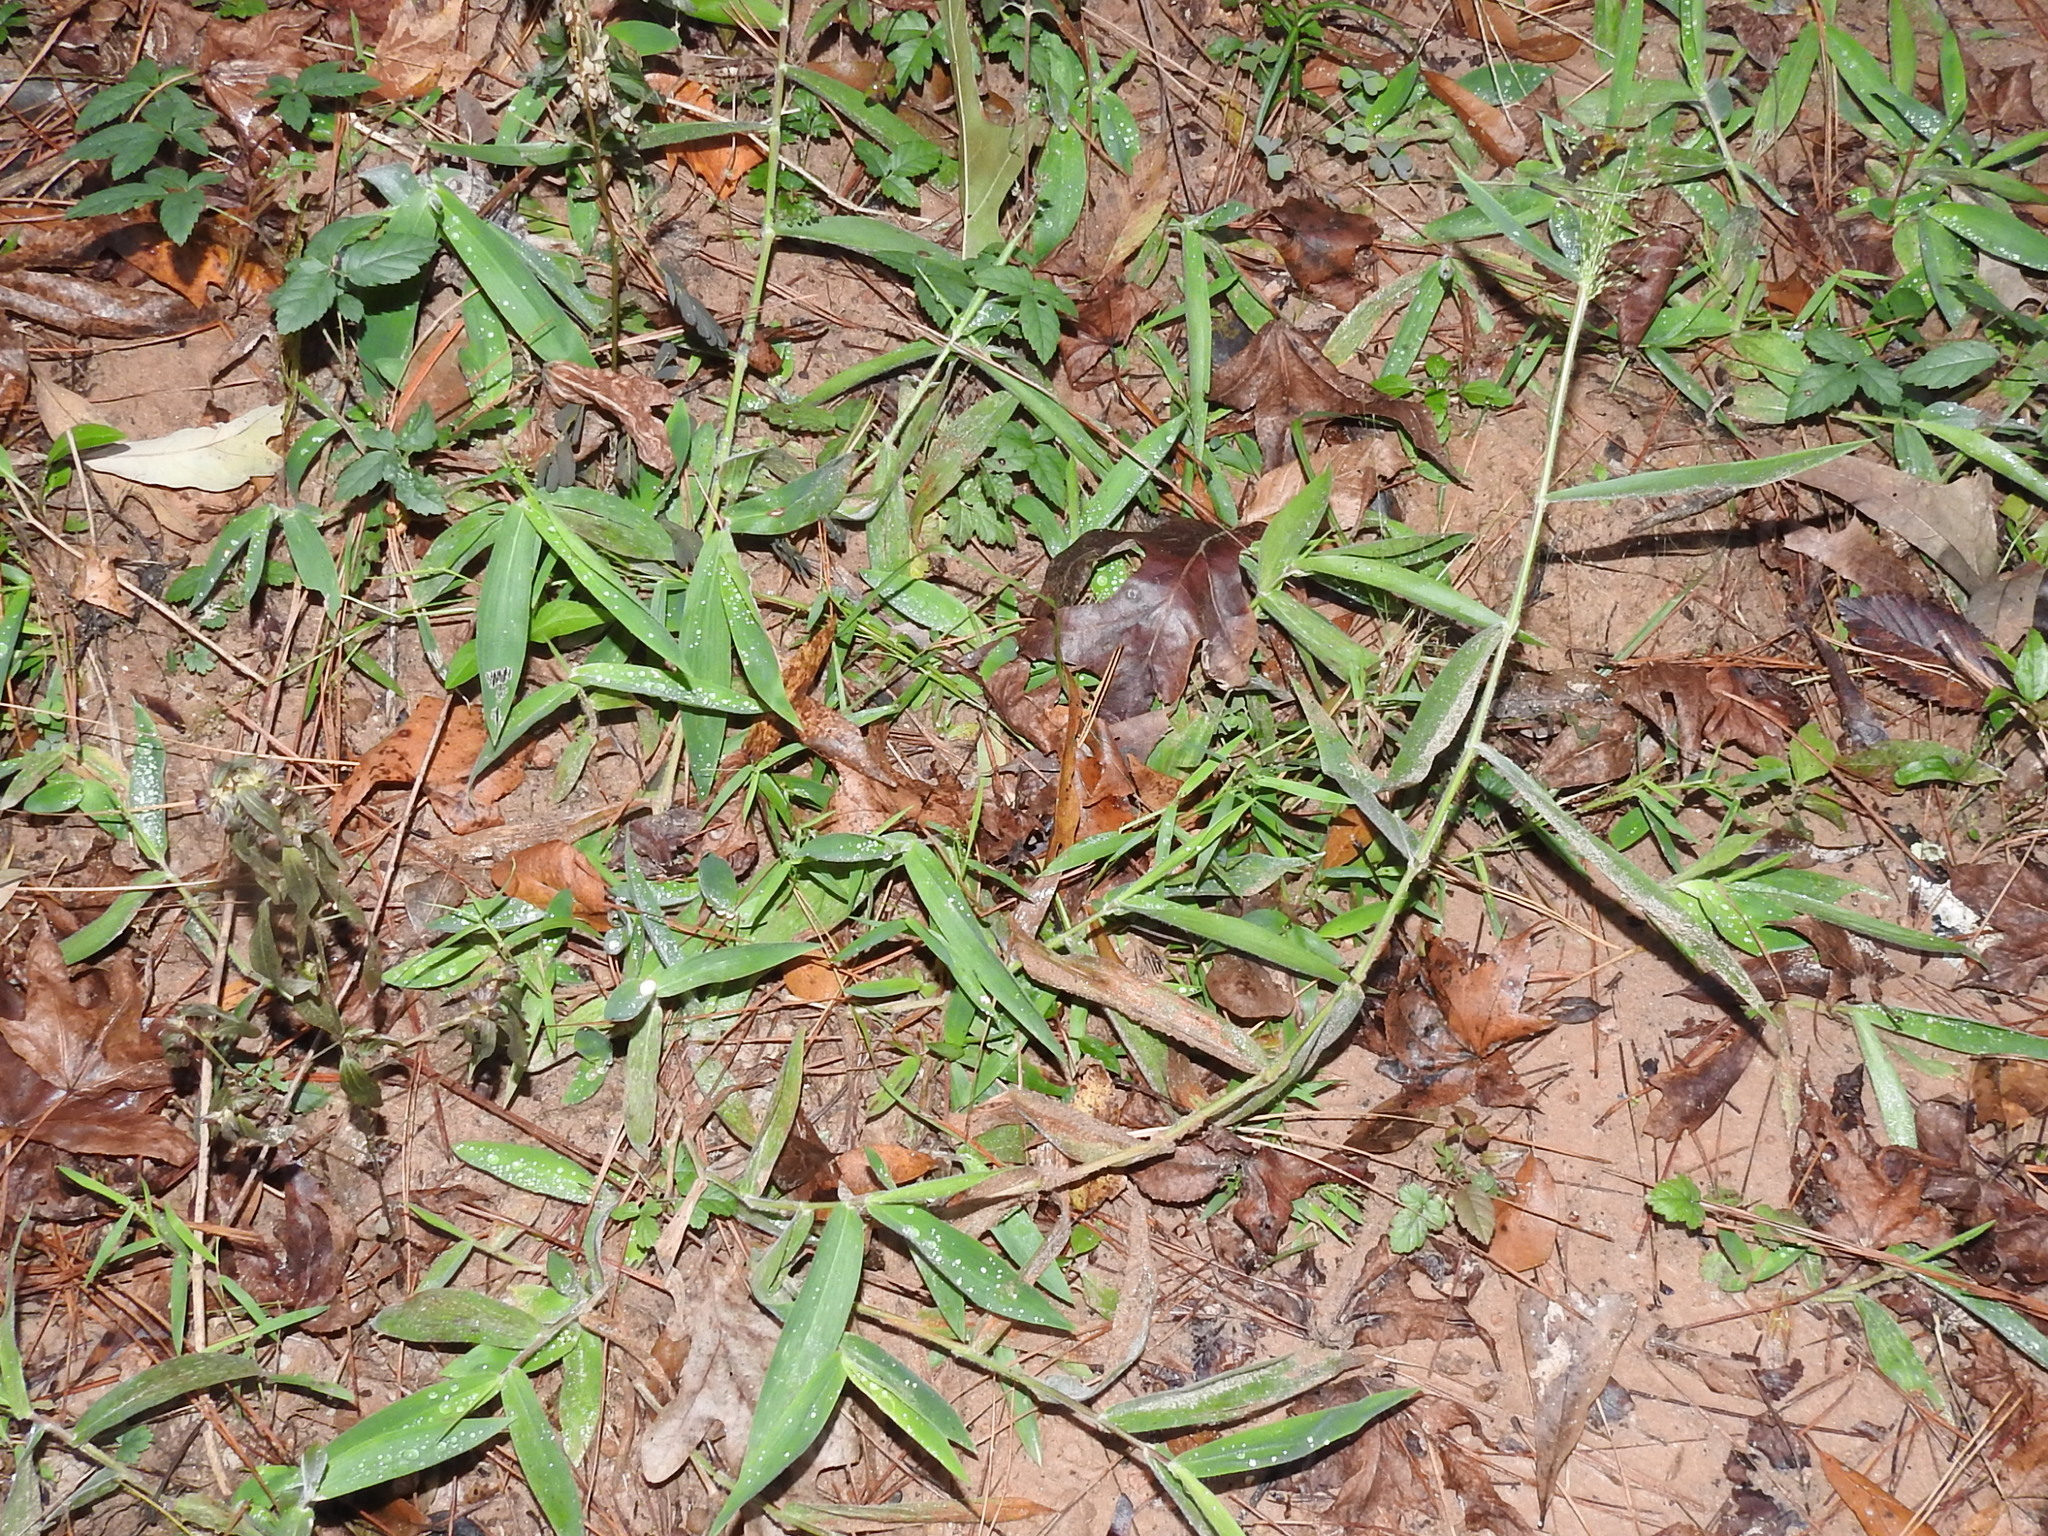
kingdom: Plantae
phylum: Tracheophyta
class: Liliopsida
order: Poales
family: Poaceae
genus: Dichanthelium
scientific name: Dichanthelium scoparium
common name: Velvety panic grass
